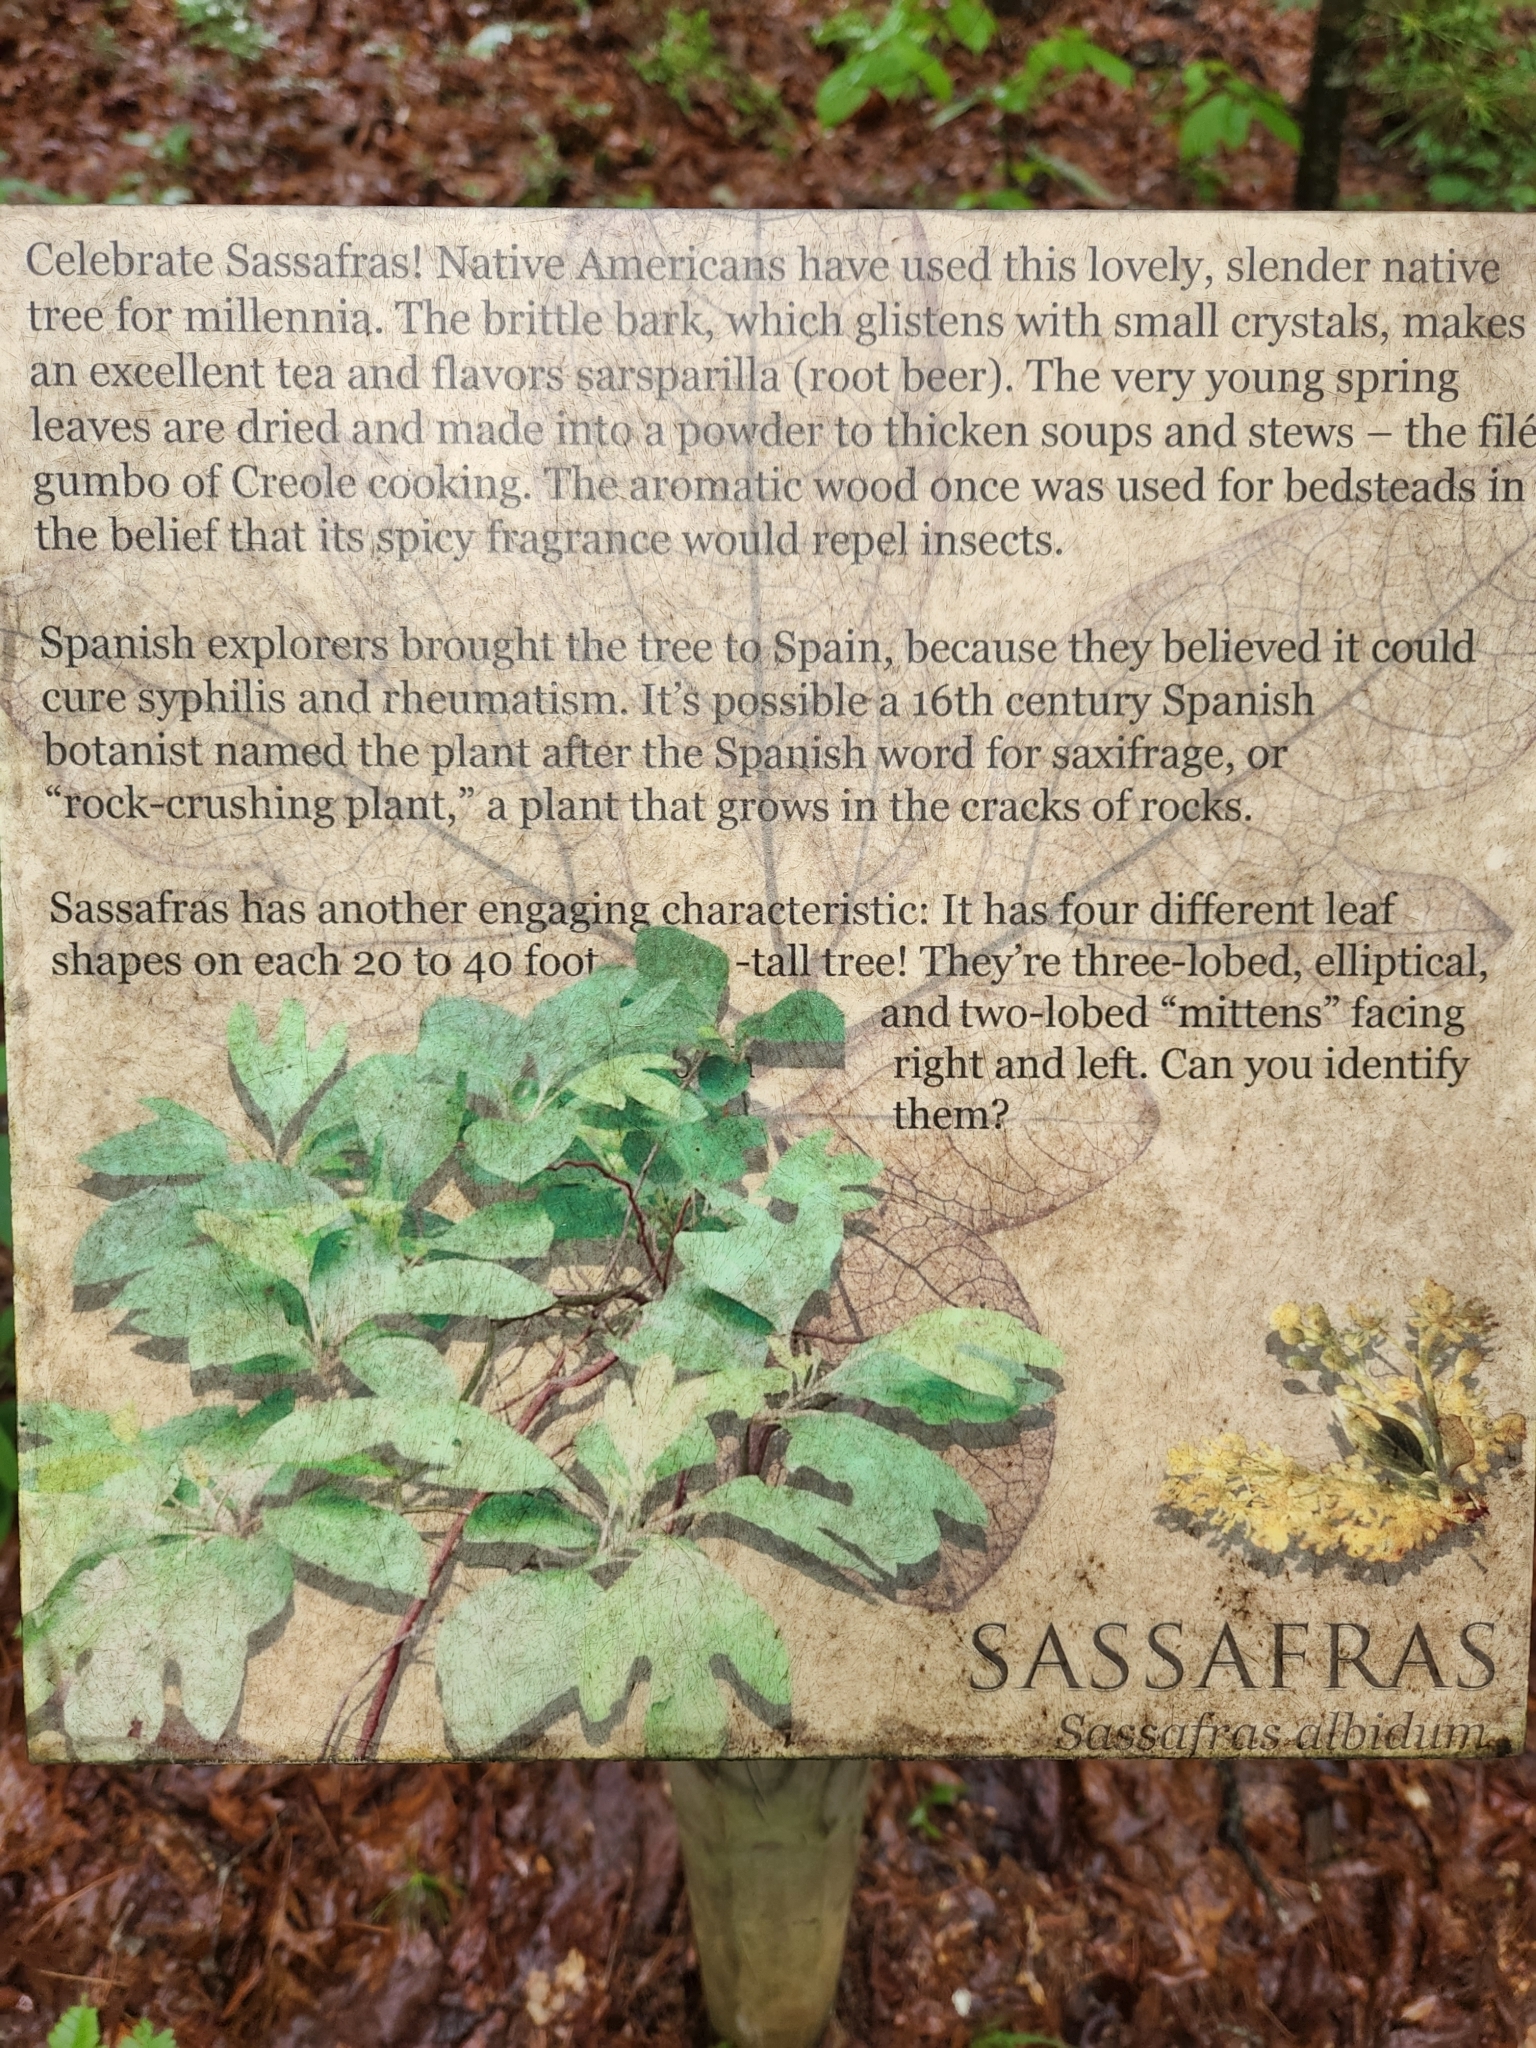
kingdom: Plantae
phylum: Tracheophyta
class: Magnoliopsida
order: Laurales
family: Lauraceae
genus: Sassafras
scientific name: Sassafras albidum
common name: Sassafras
